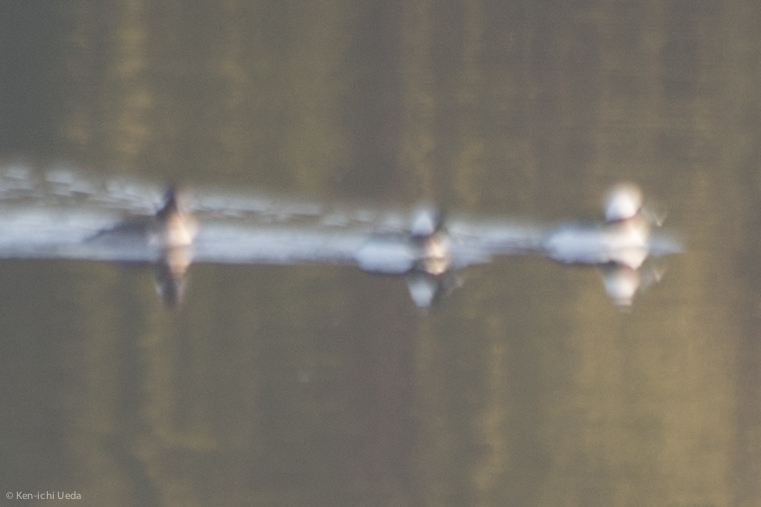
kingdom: Animalia
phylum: Chordata
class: Aves
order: Anseriformes
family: Anatidae
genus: Bucephala
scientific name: Bucephala albeola
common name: Bufflehead
